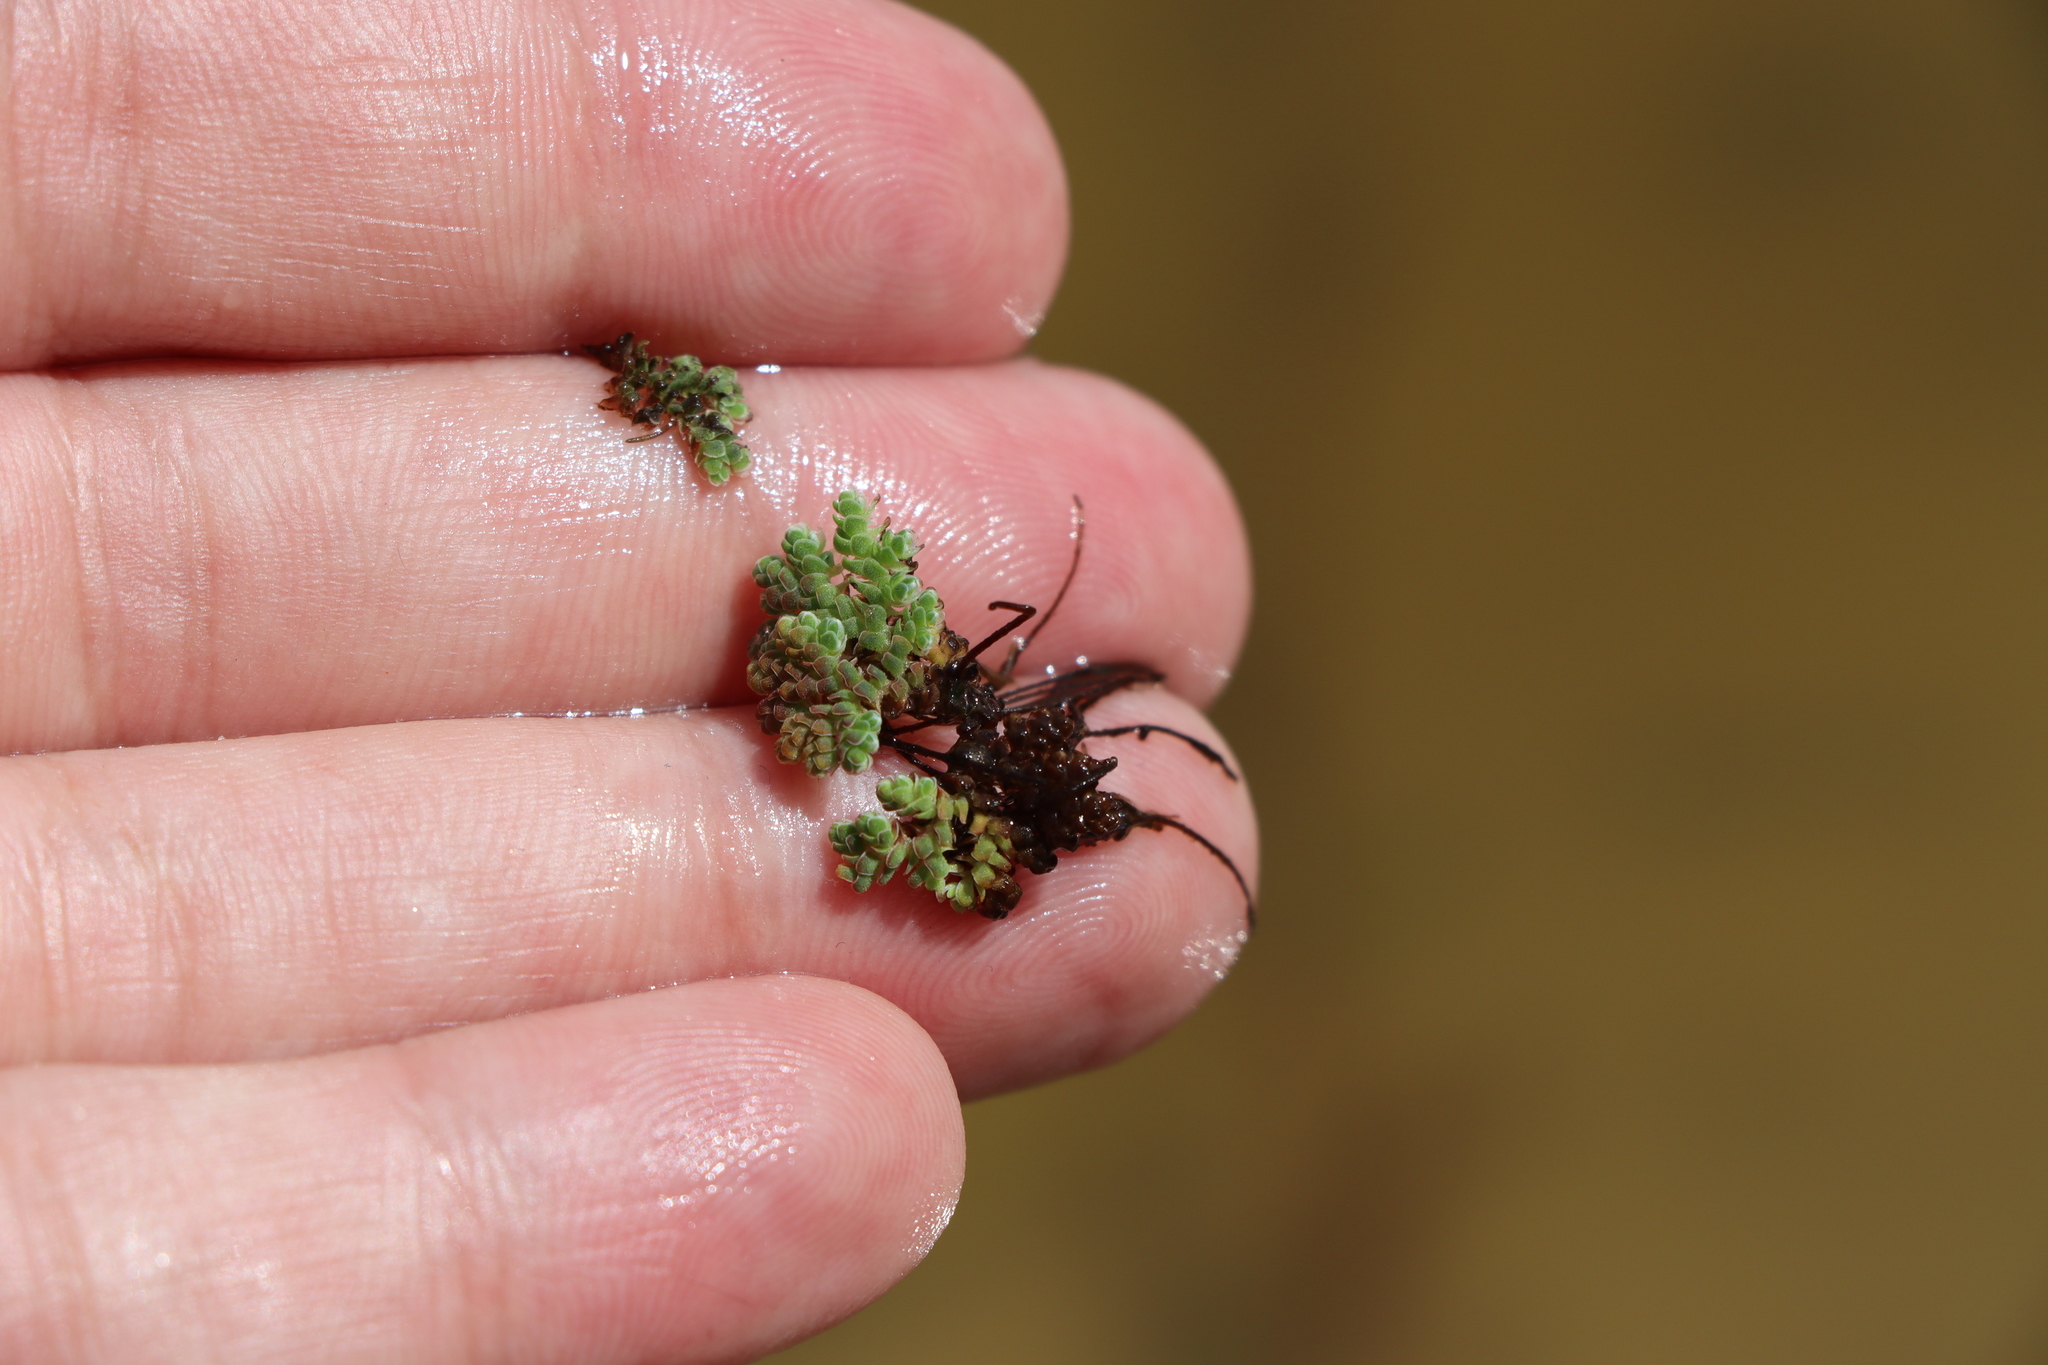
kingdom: Plantae
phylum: Tracheophyta
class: Polypodiopsida
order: Salviniales
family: Salviniaceae
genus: Azolla
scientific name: Azolla filiculoides
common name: Water fern
